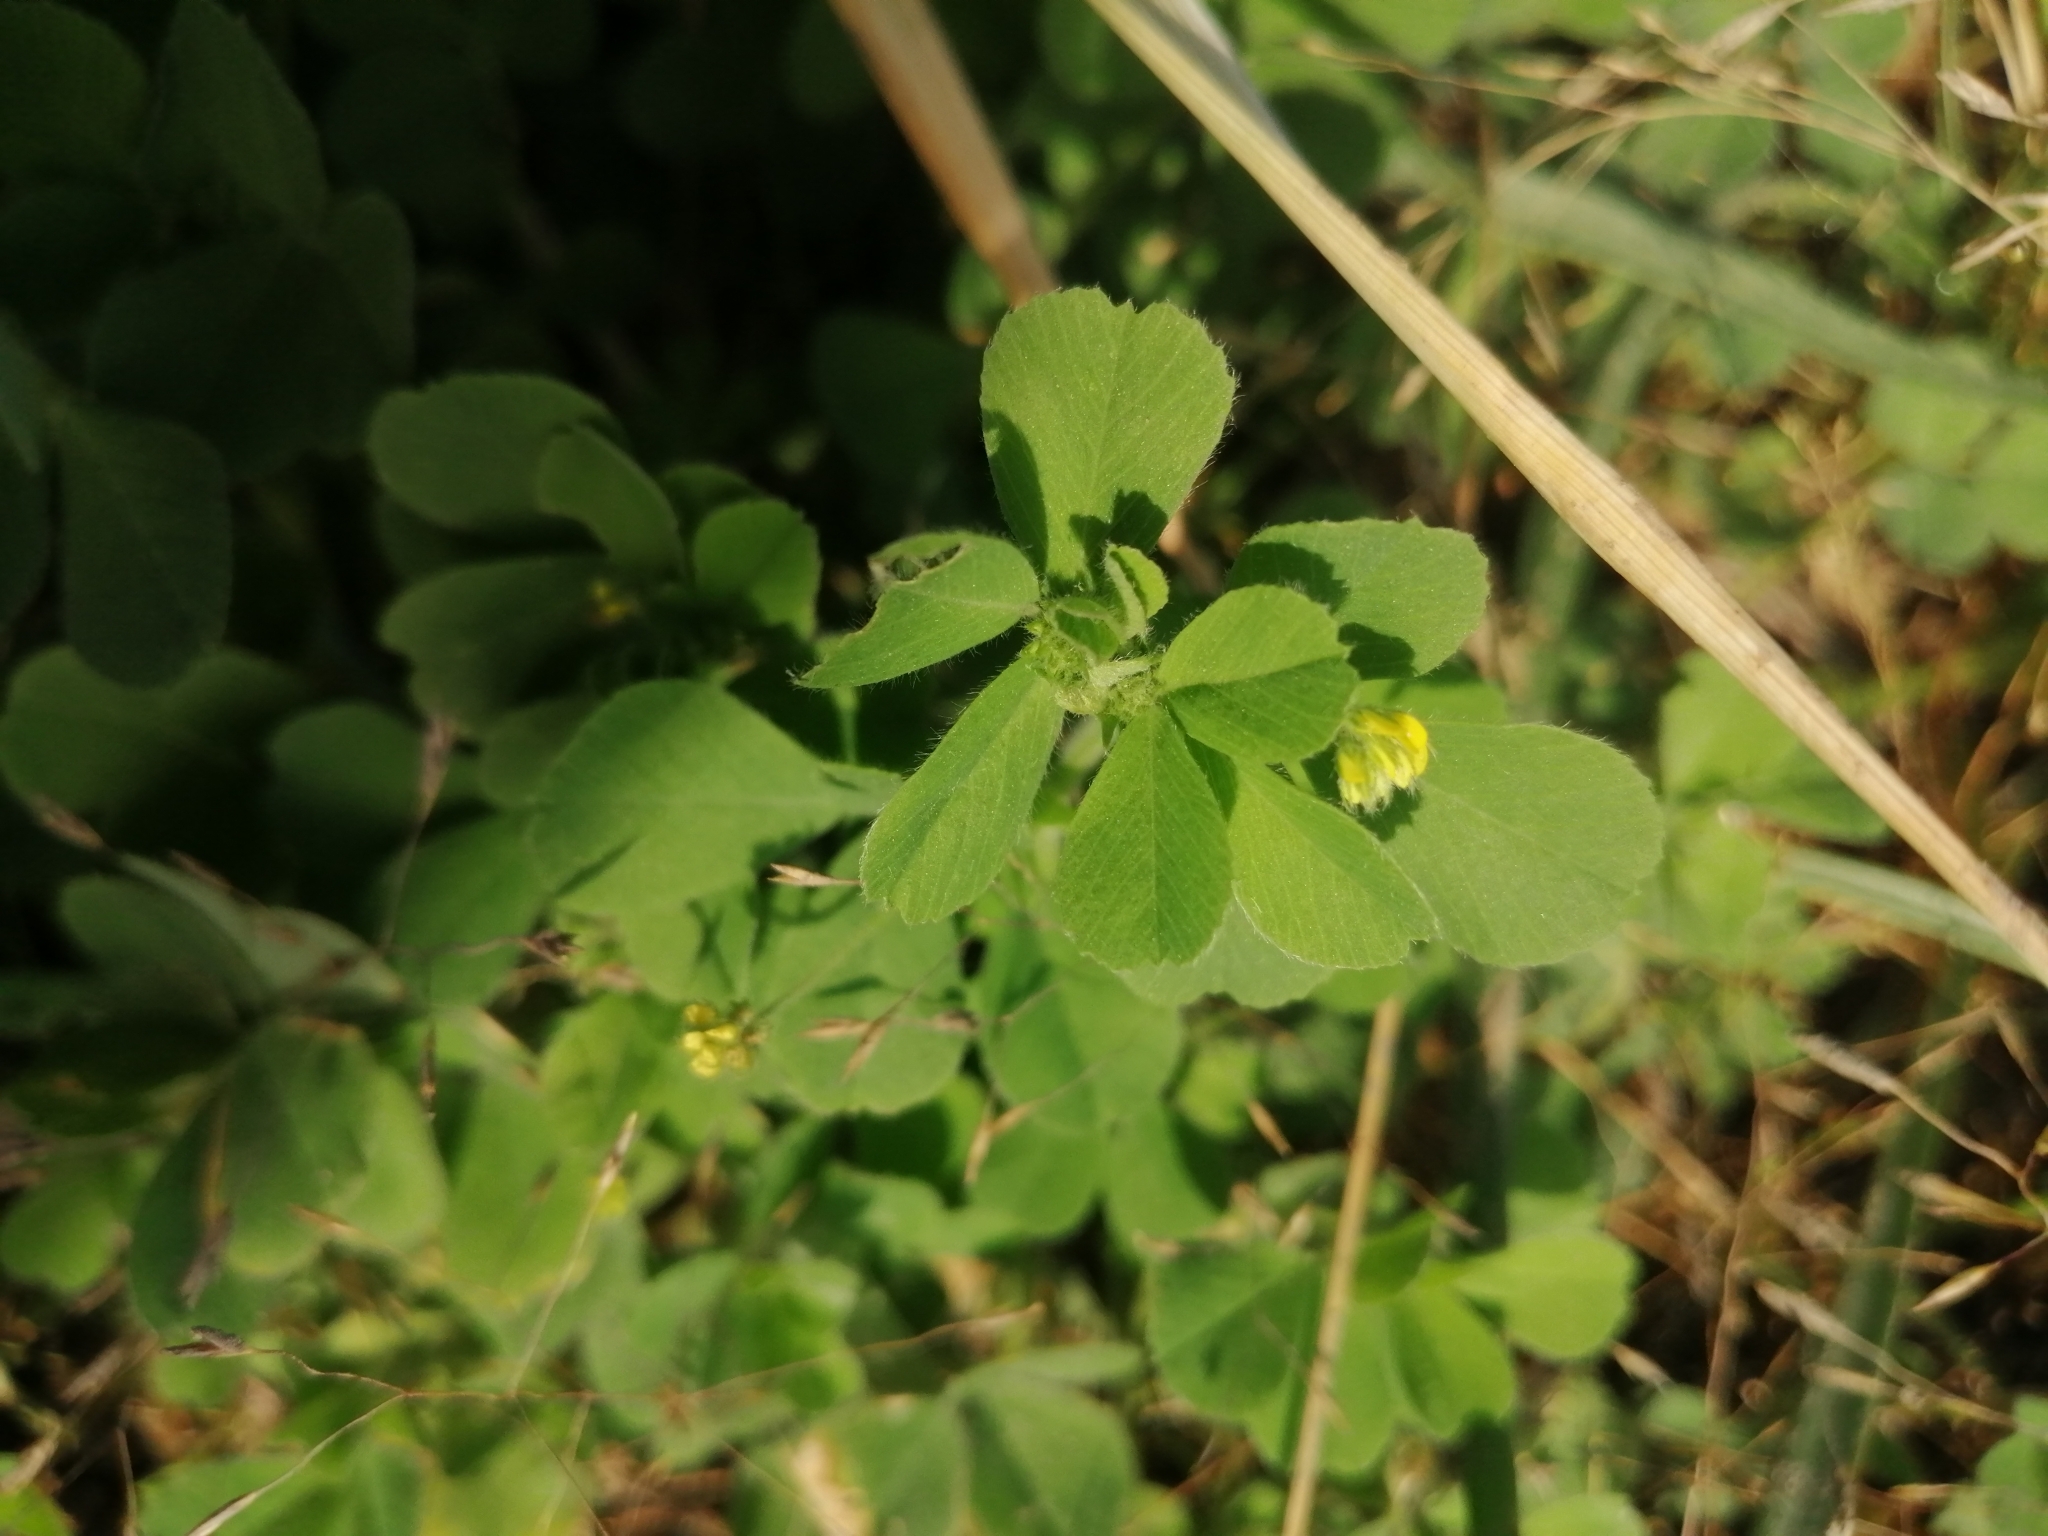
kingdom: Plantae
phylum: Tracheophyta
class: Magnoliopsida
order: Fabales
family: Fabaceae
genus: Medicago
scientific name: Medicago lupulina
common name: Black medick
